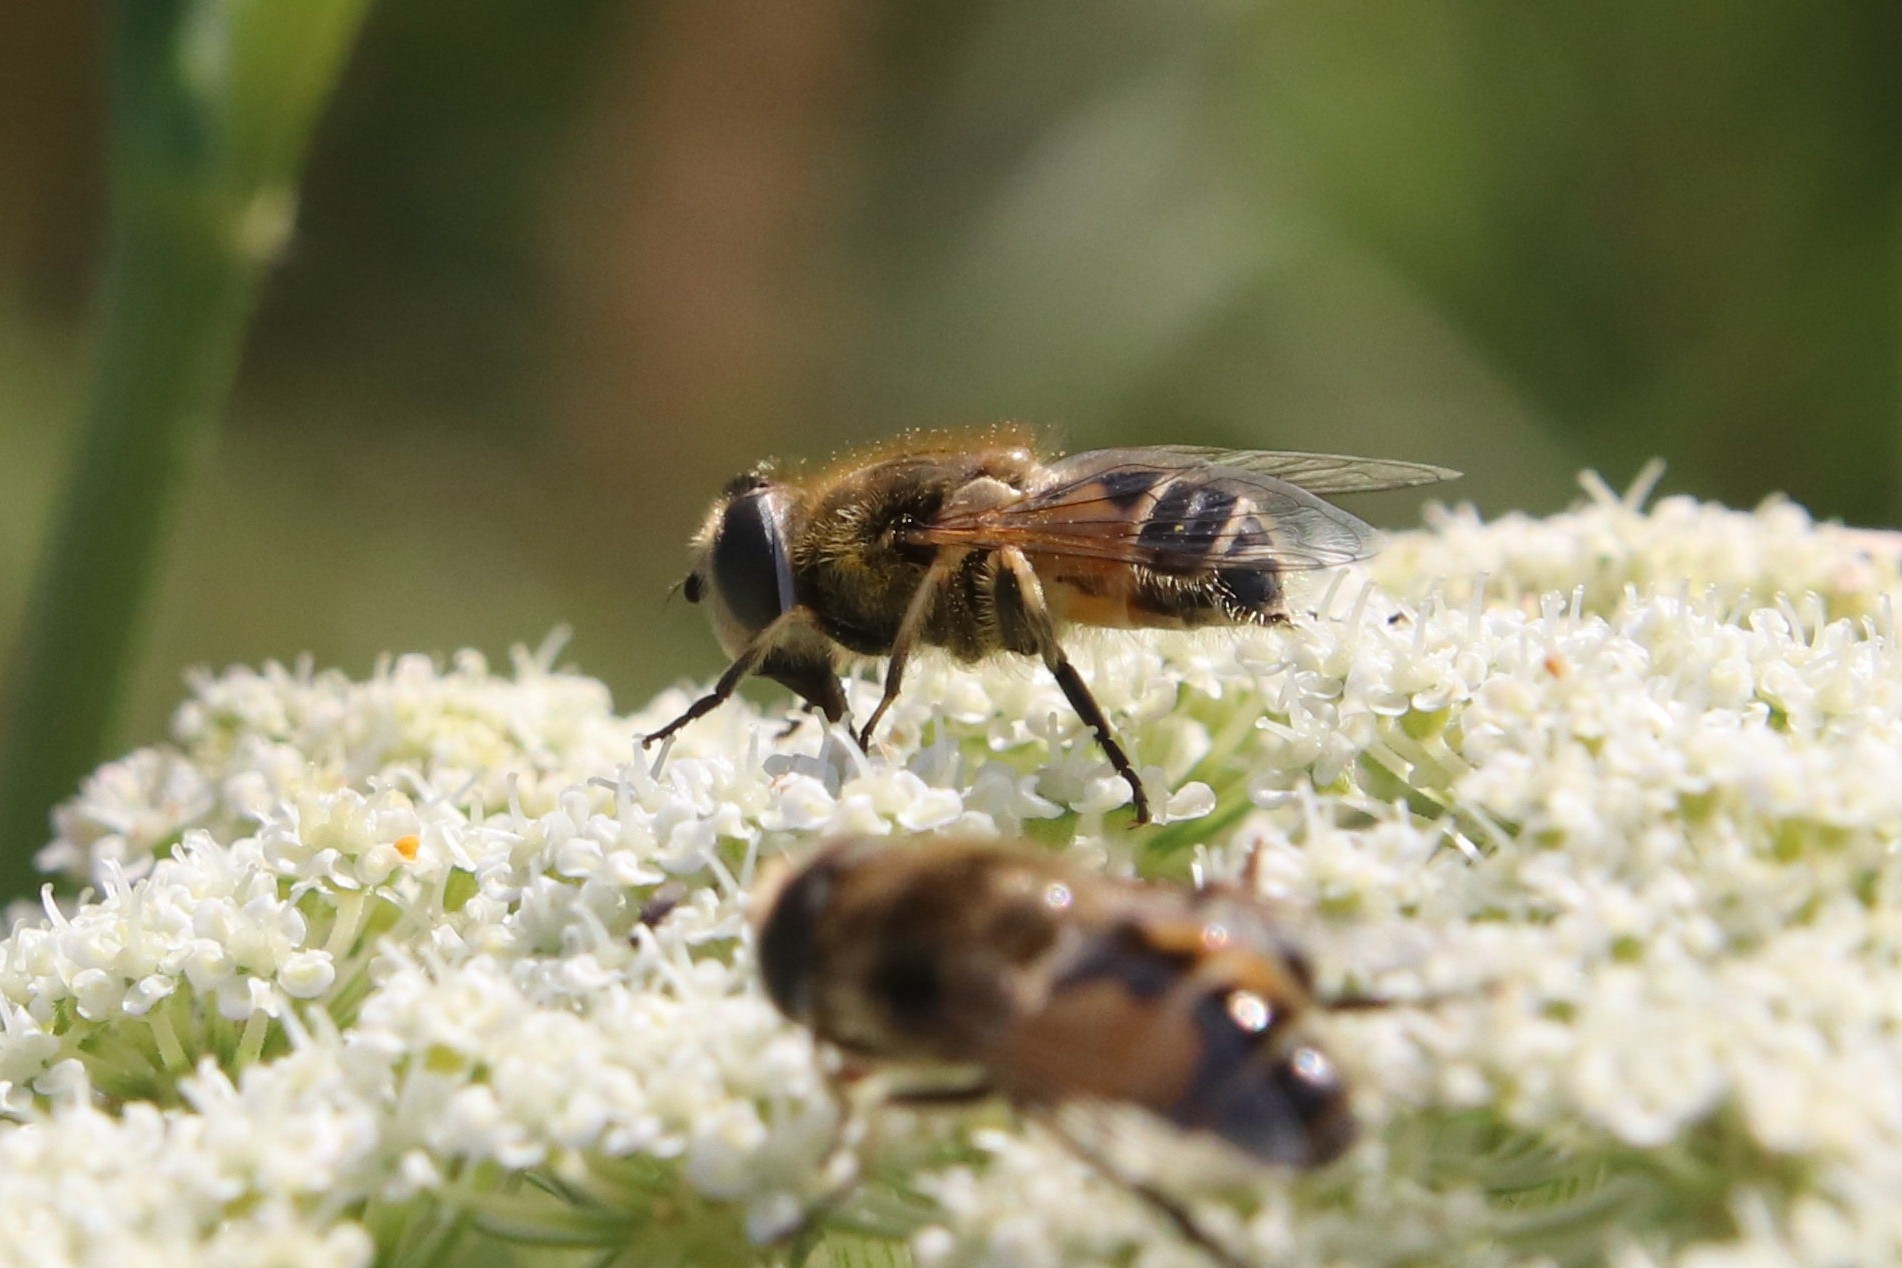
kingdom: Animalia
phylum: Arthropoda
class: Insecta
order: Diptera
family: Syrphidae
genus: Eristalis
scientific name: Eristalis arbustorum
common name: Hover fly
